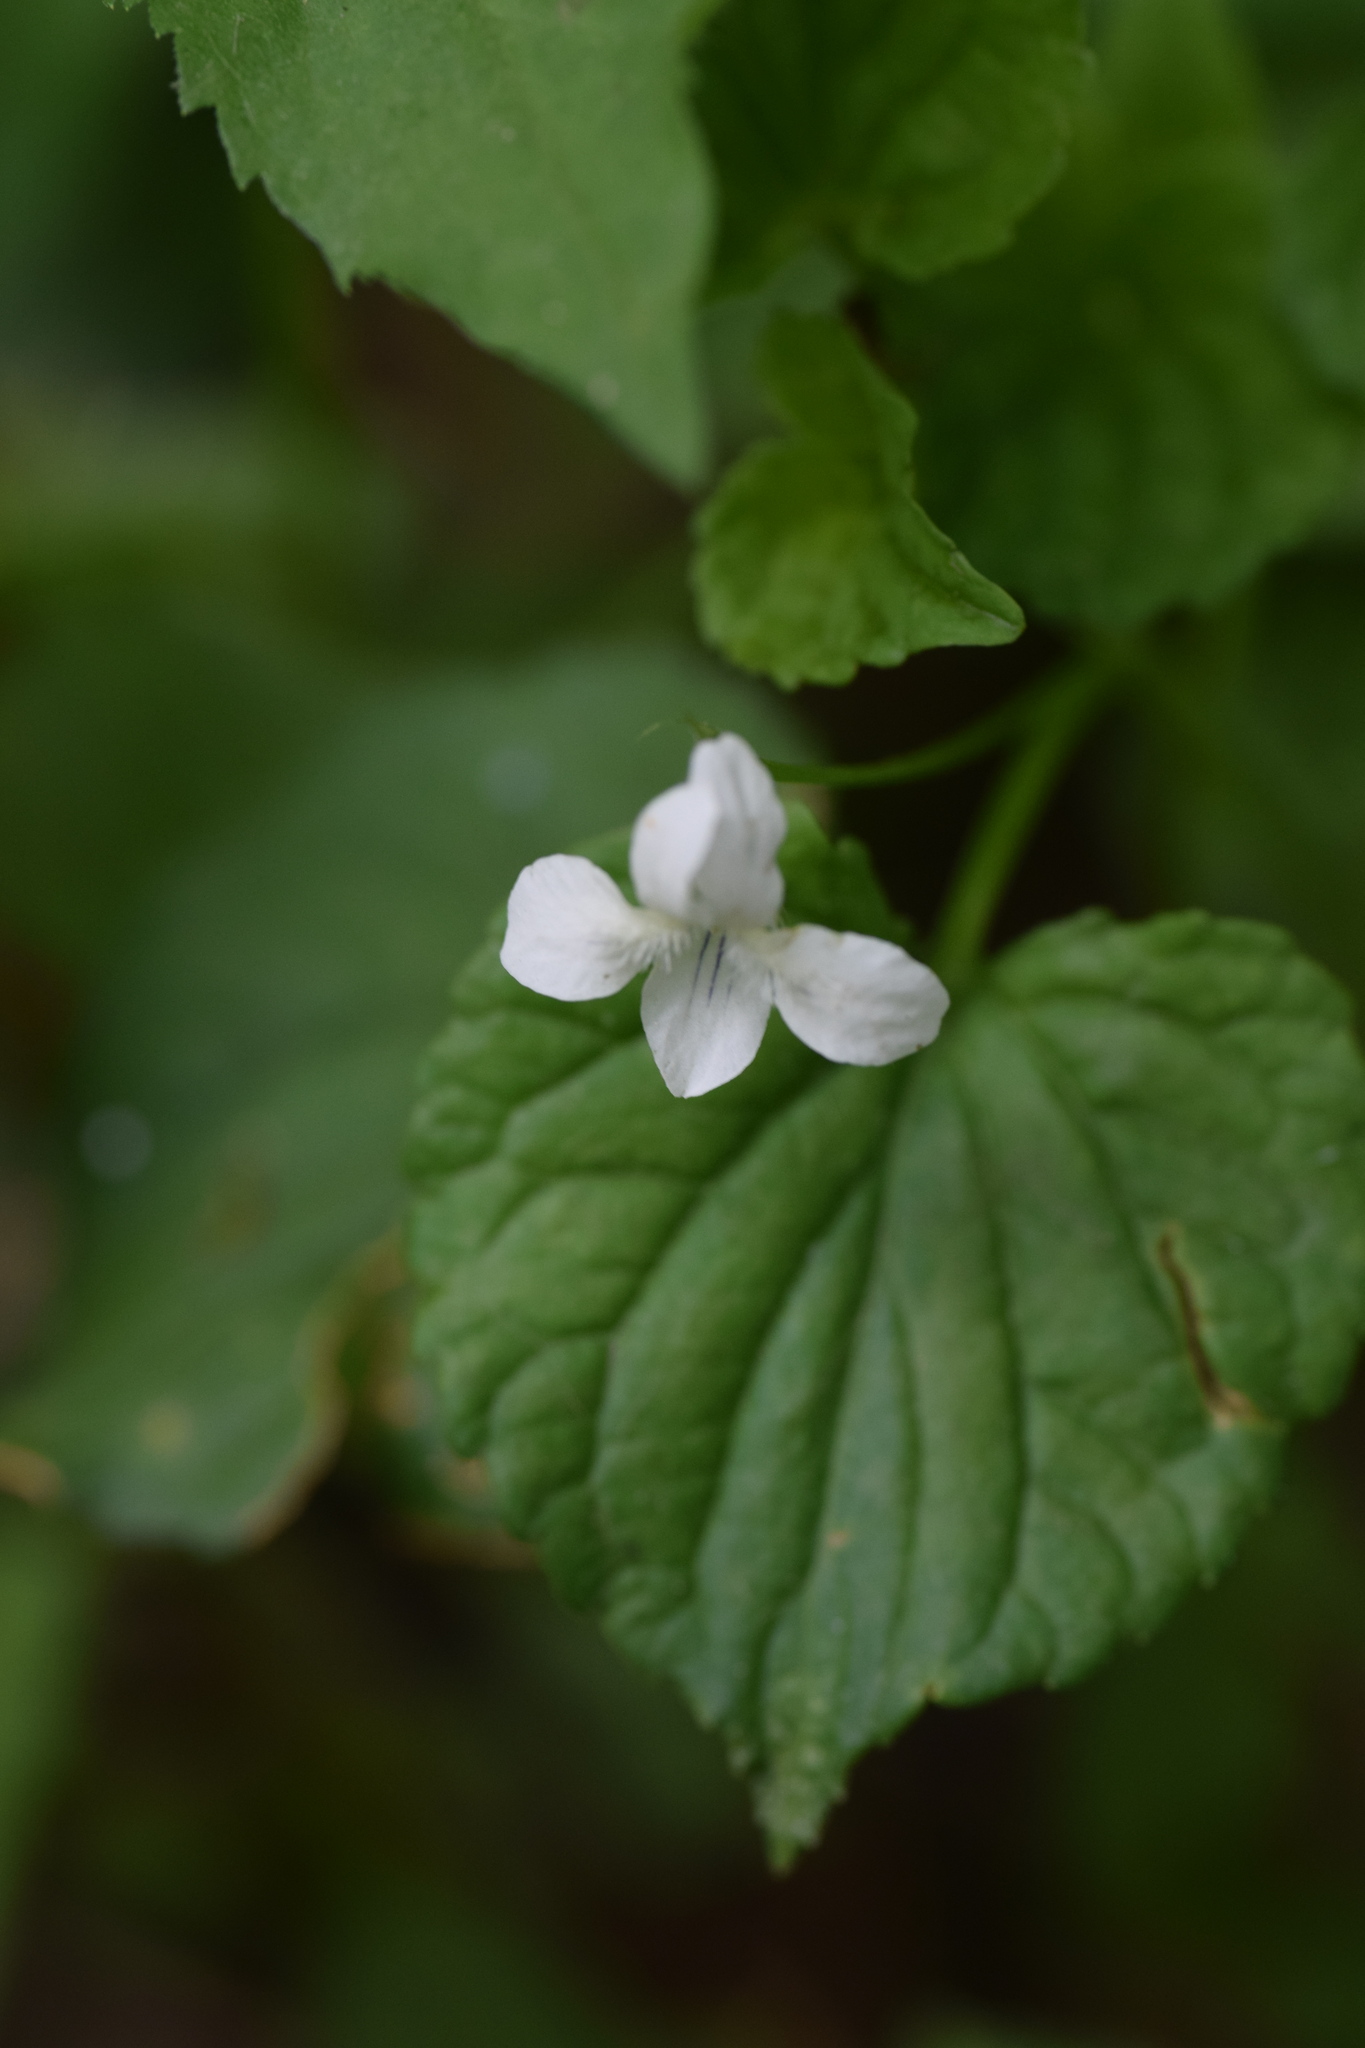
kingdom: Plantae
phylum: Tracheophyta
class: Magnoliopsida
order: Malpighiales
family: Violaceae
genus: Viola
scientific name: Viola striata
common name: Cream violet
